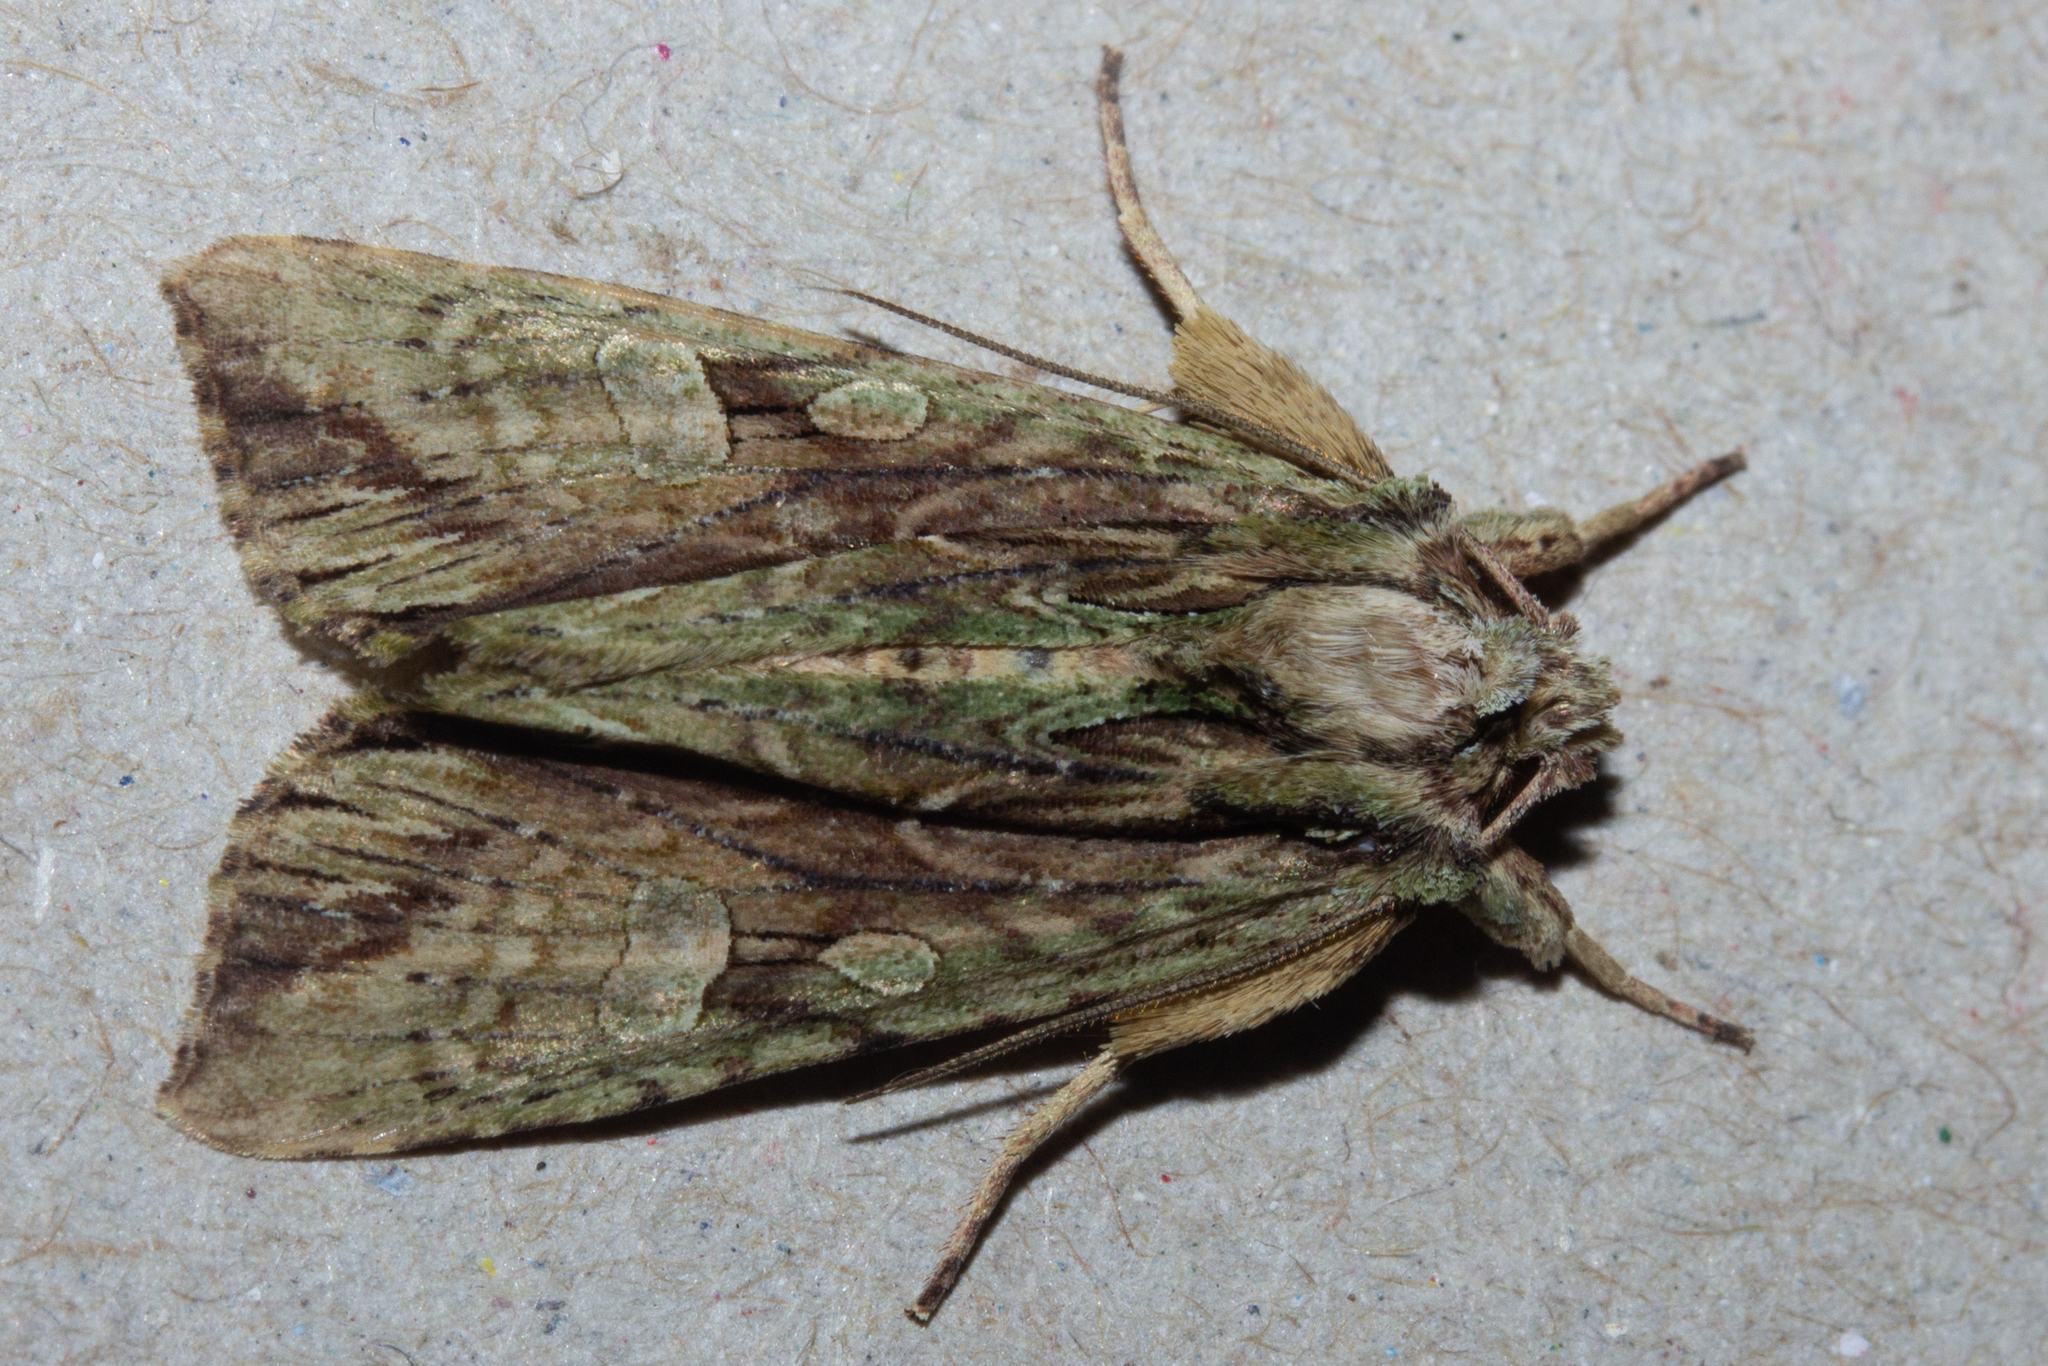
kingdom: Animalia
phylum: Arthropoda
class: Insecta
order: Lepidoptera
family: Noctuidae
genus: Meterana
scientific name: Meterana decorata
